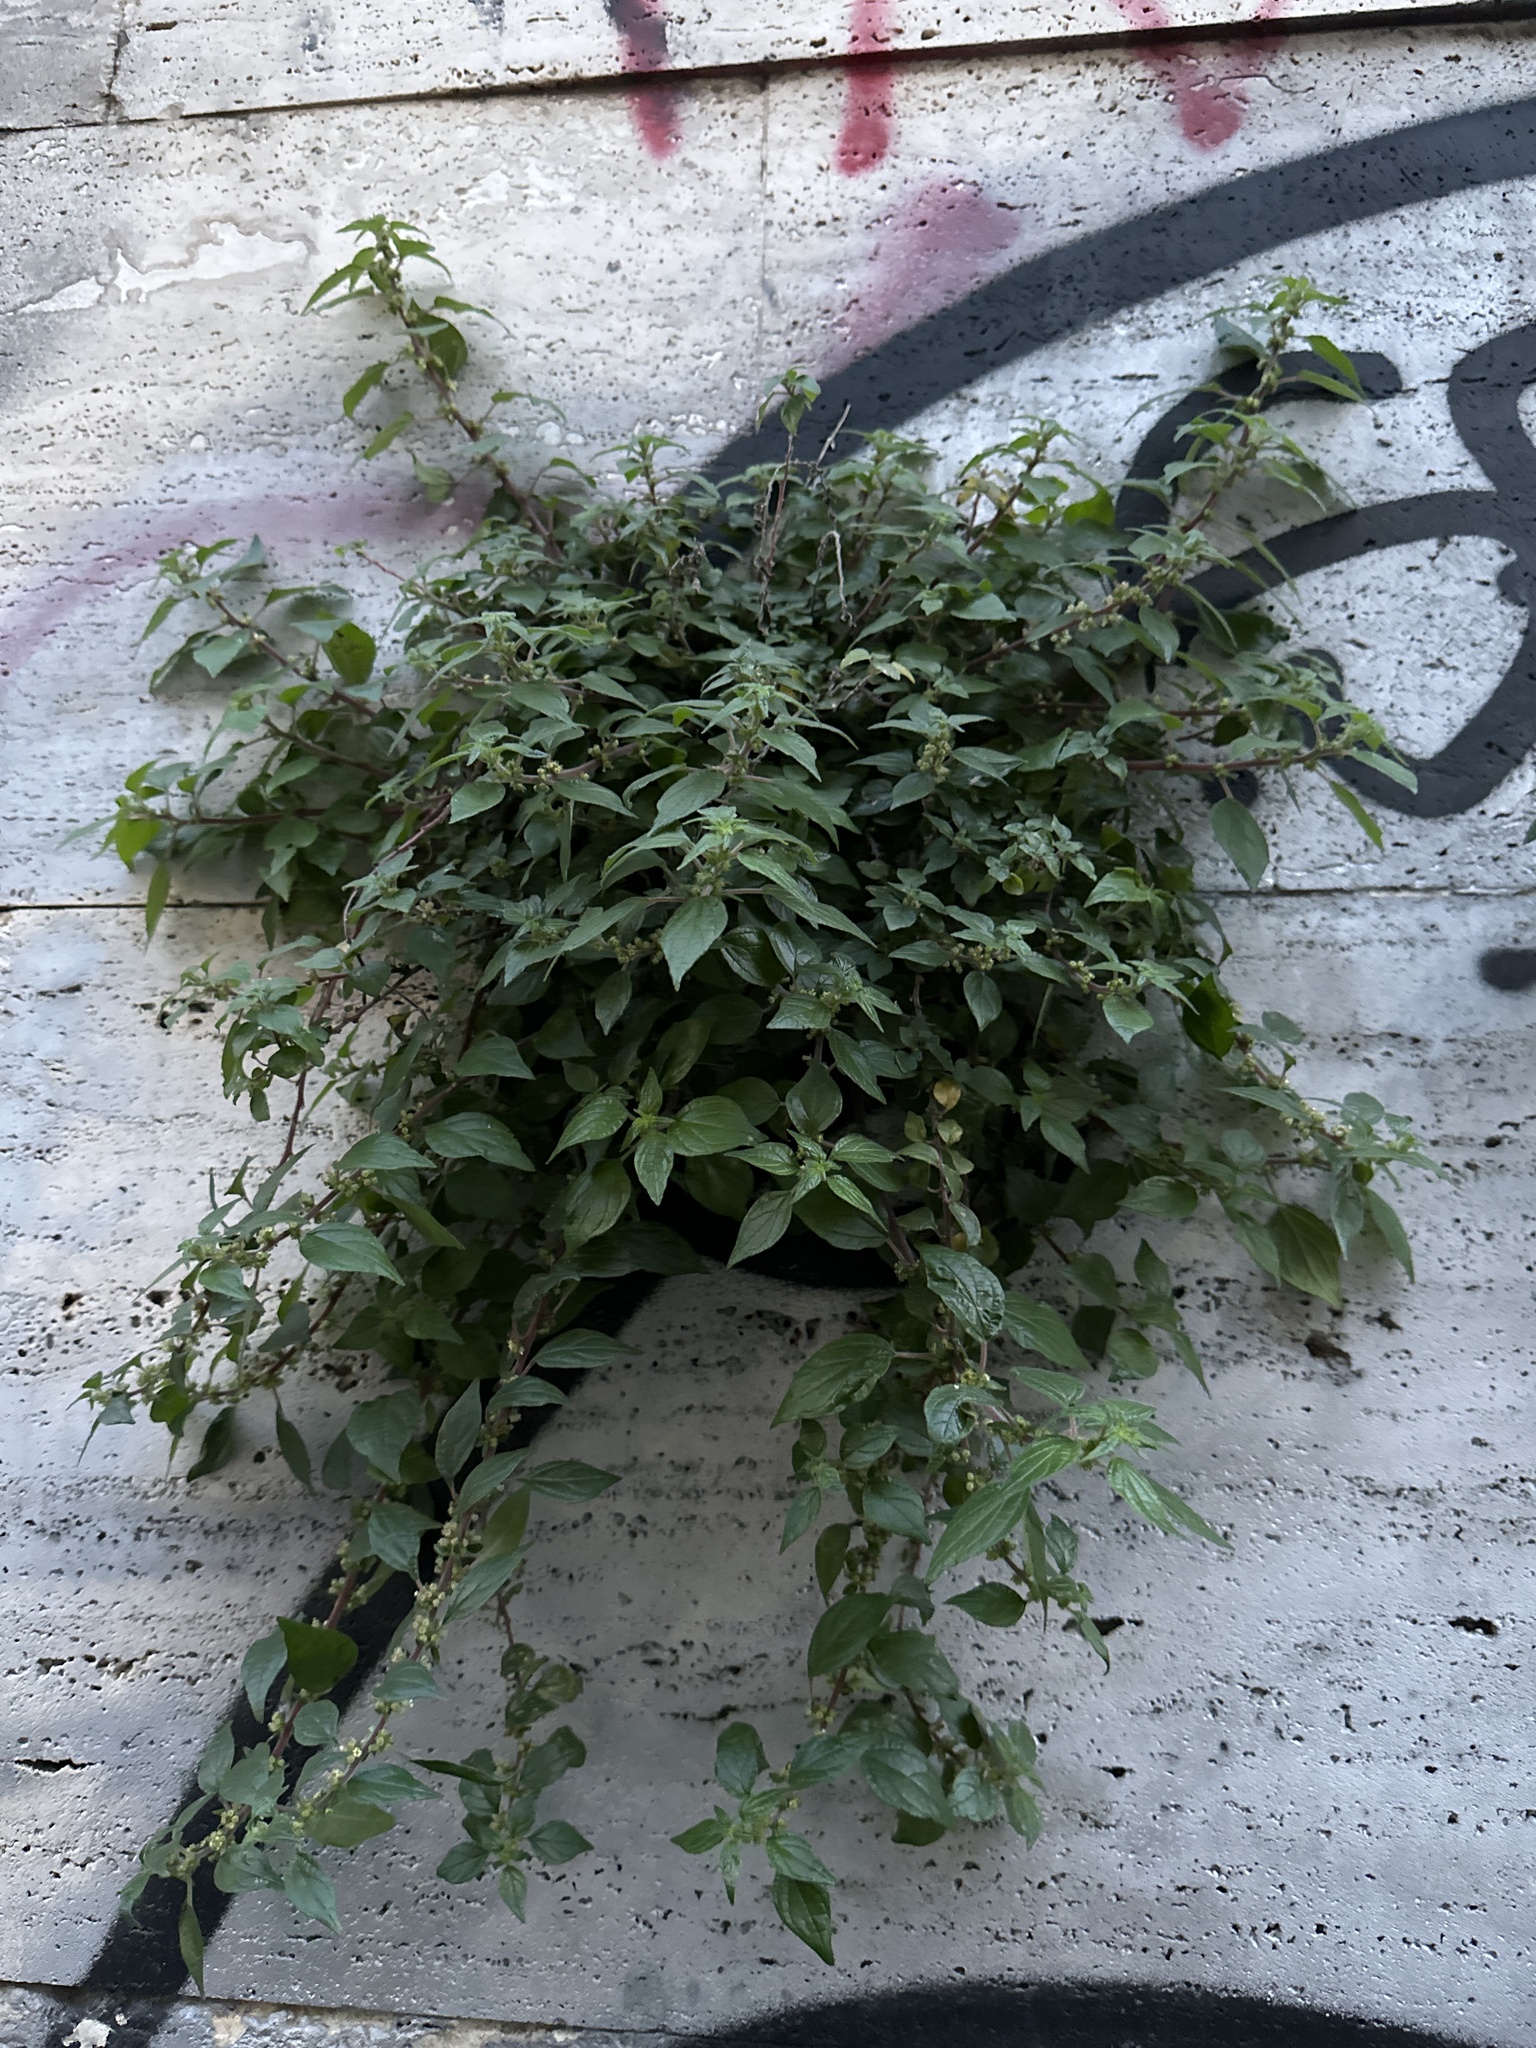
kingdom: Plantae
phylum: Tracheophyta
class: Magnoliopsida
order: Rosales
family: Urticaceae
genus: Parietaria
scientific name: Parietaria judaica
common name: Pellitory-of-the-wall
